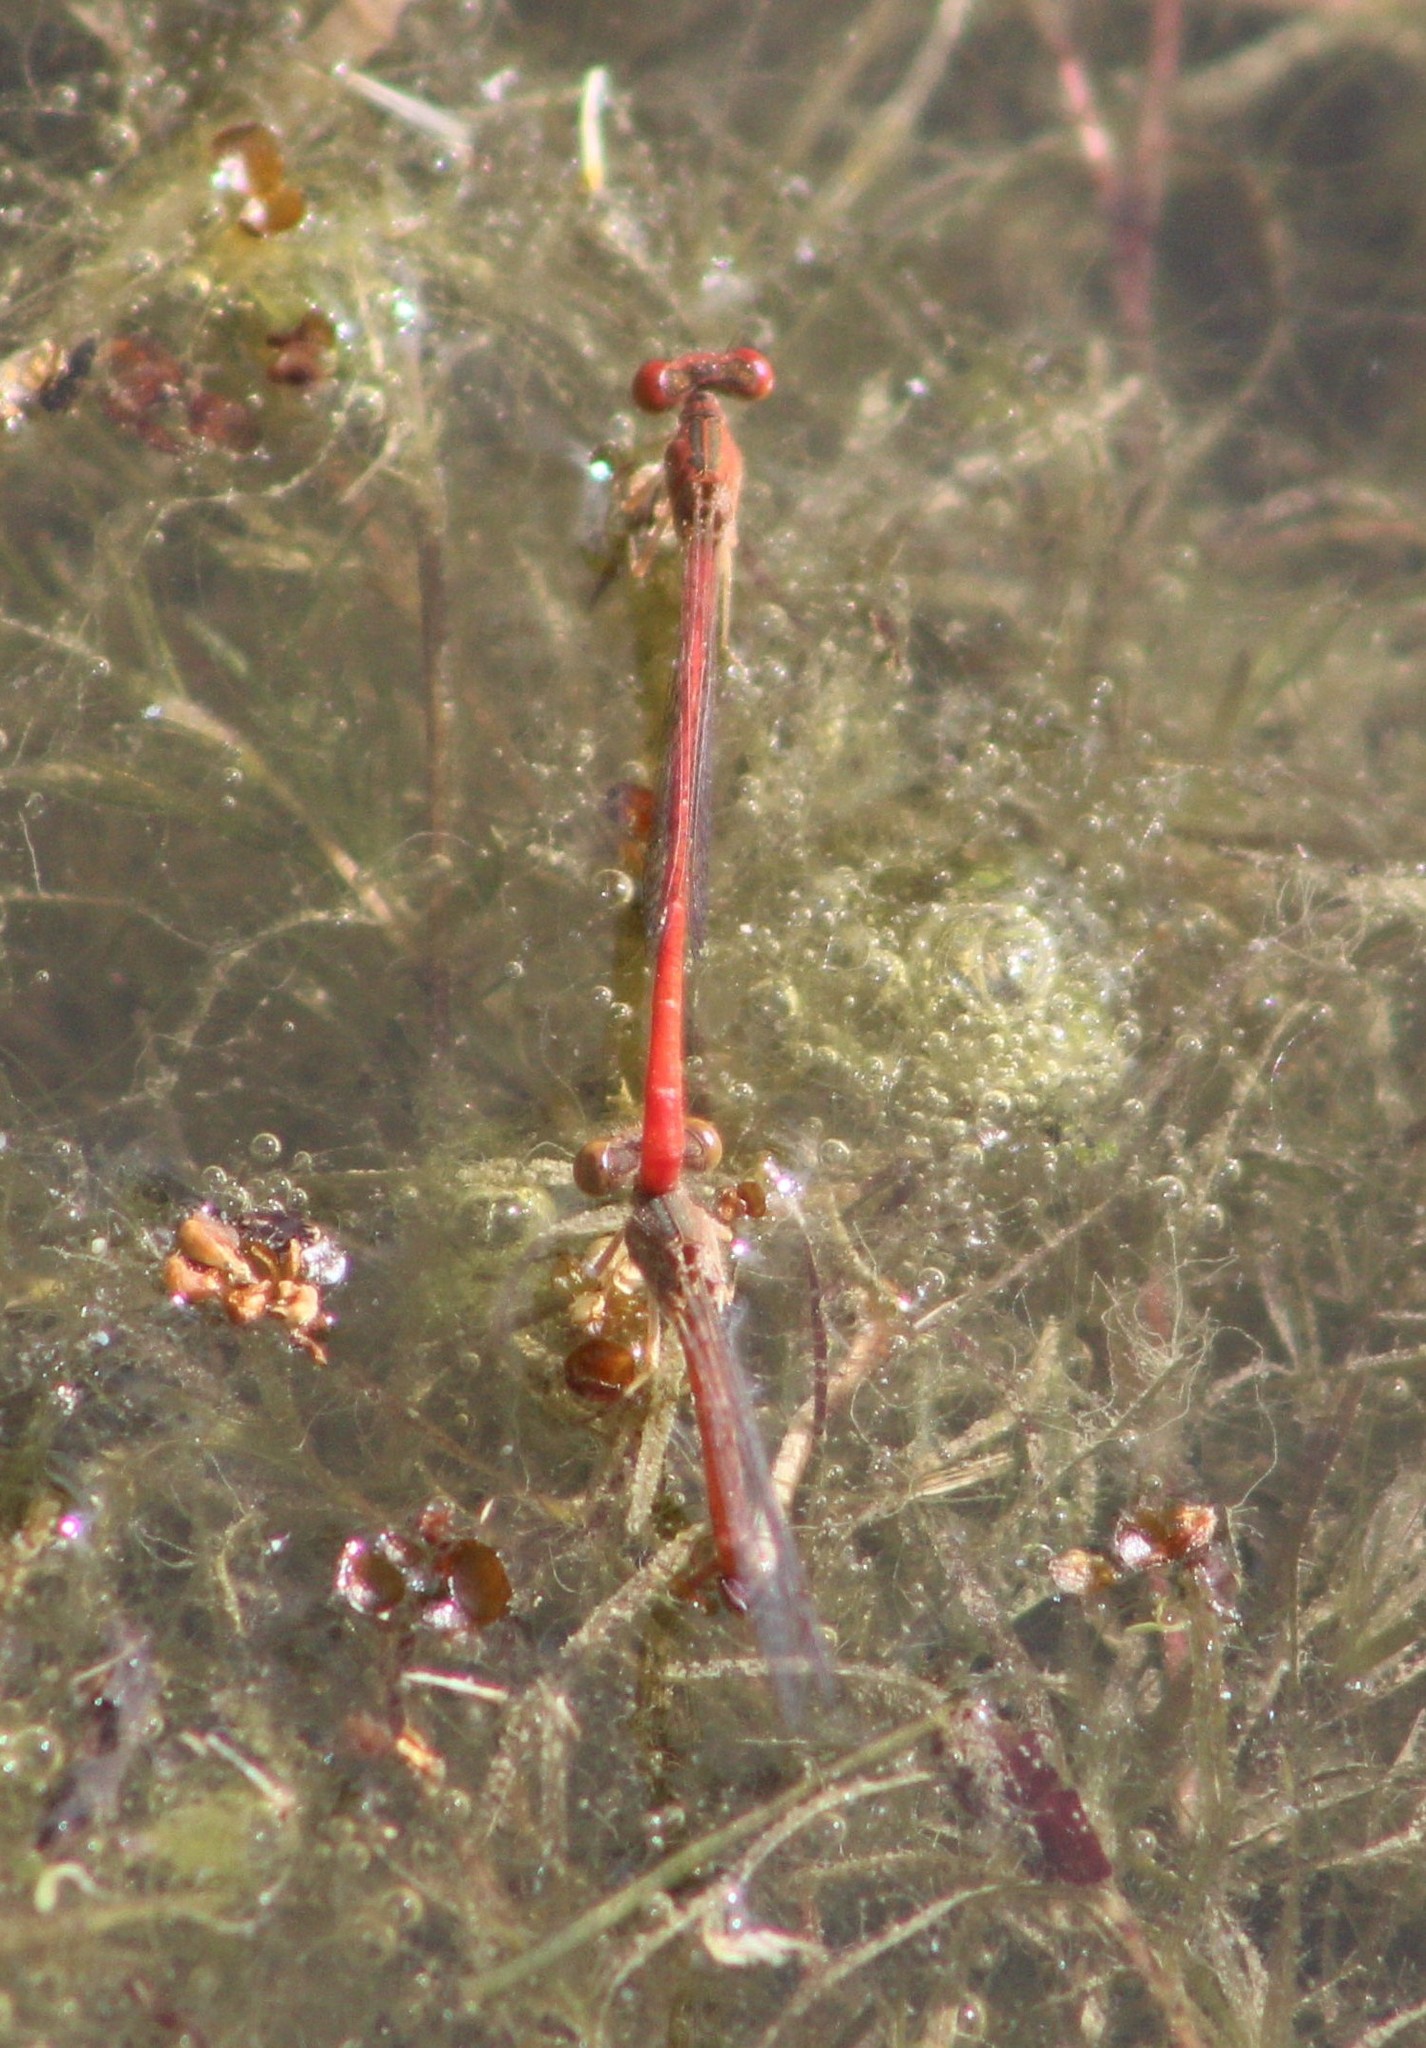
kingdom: Animalia
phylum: Arthropoda
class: Insecta
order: Odonata
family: Coenagrionidae
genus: Telebasis
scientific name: Telebasis salva
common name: Desert firetail
